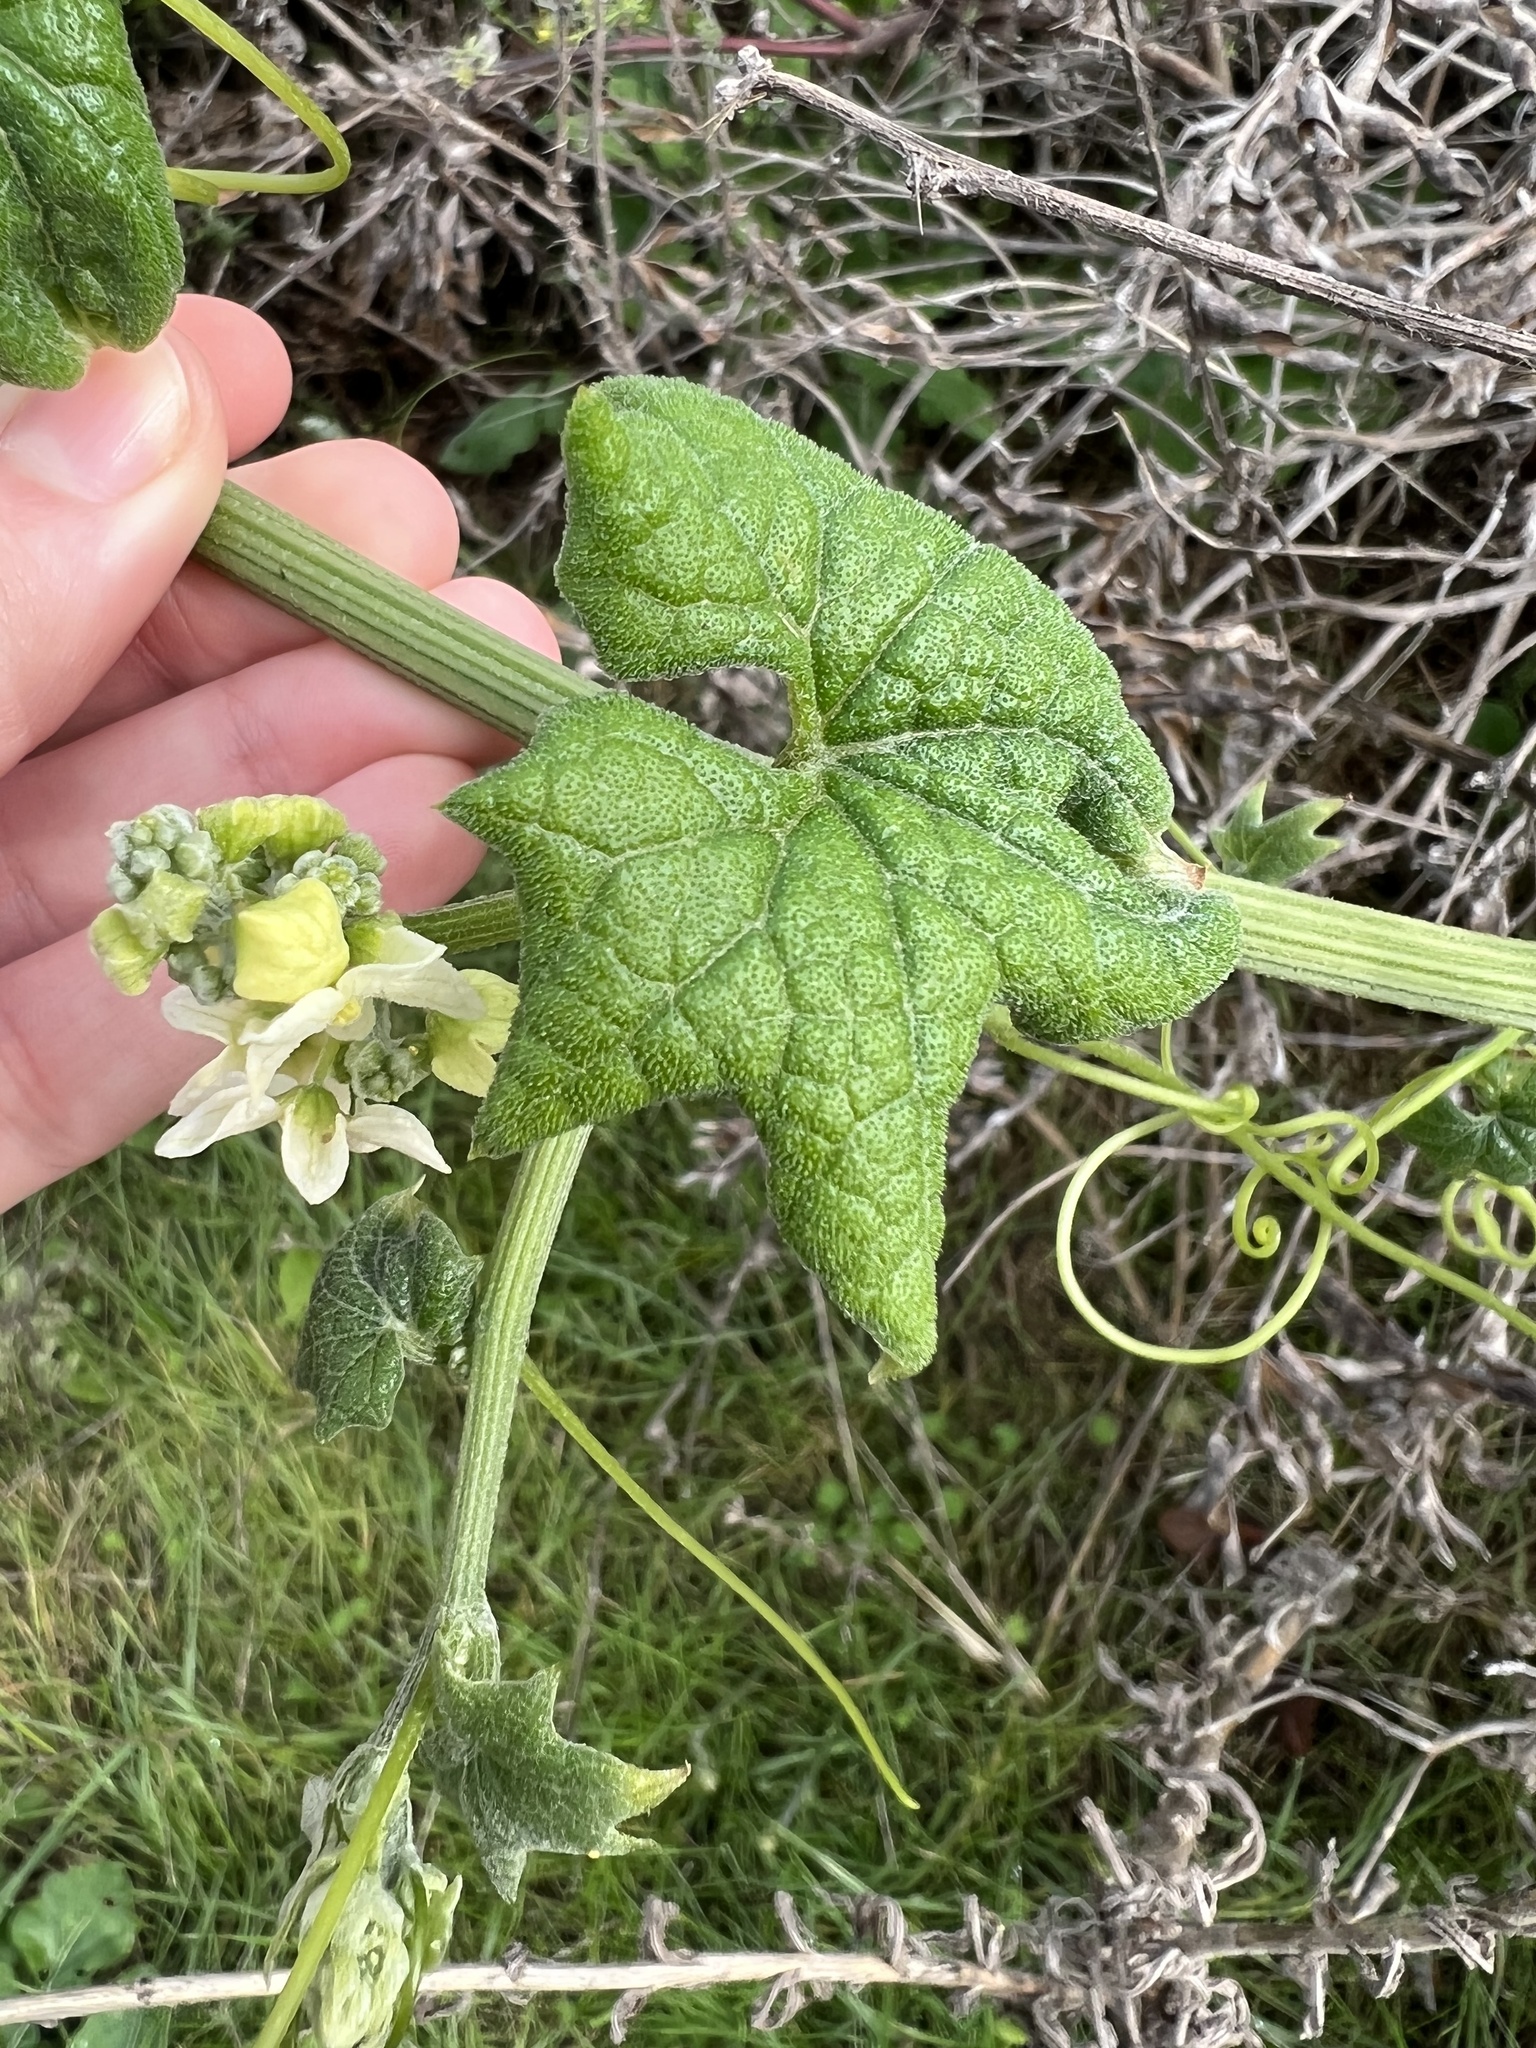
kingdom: Plantae
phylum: Tracheophyta
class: Magnoliopsida
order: Cucurbitales
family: Cucurbitaceae
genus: Marah
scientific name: Marah fabacea
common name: California manroot
